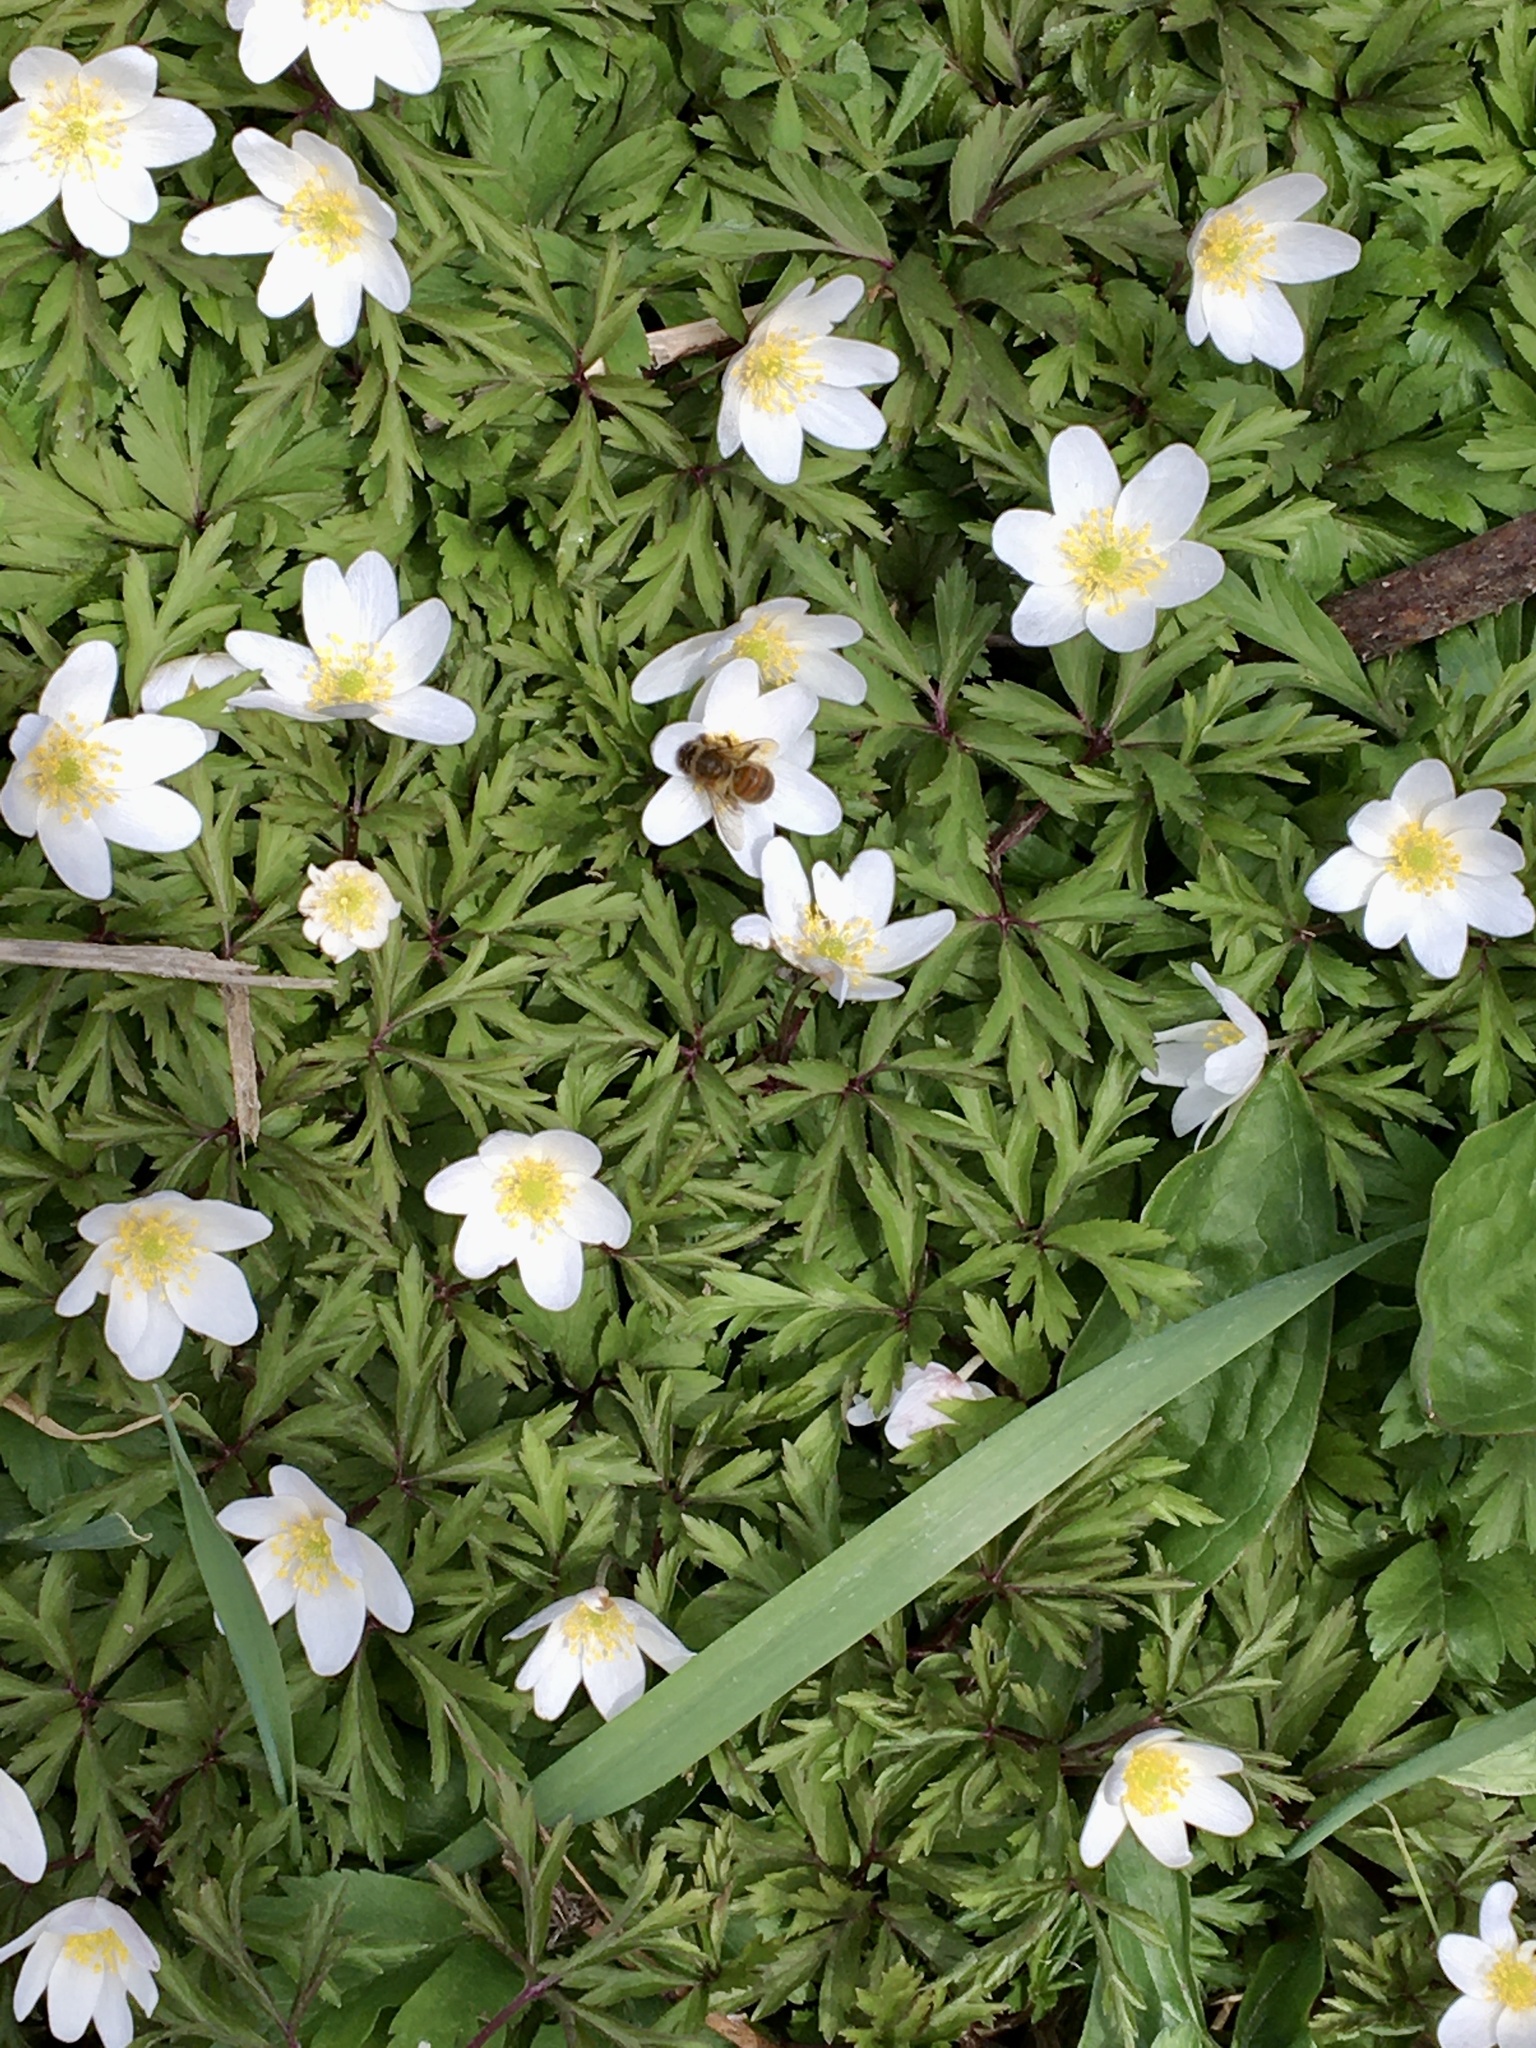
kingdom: Plantae
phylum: Tracheophyta
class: Magnoliopsida
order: Ranunculales
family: Ranunculaceae
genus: Anemone
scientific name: Anemone nemorosa
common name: Wood anemone
